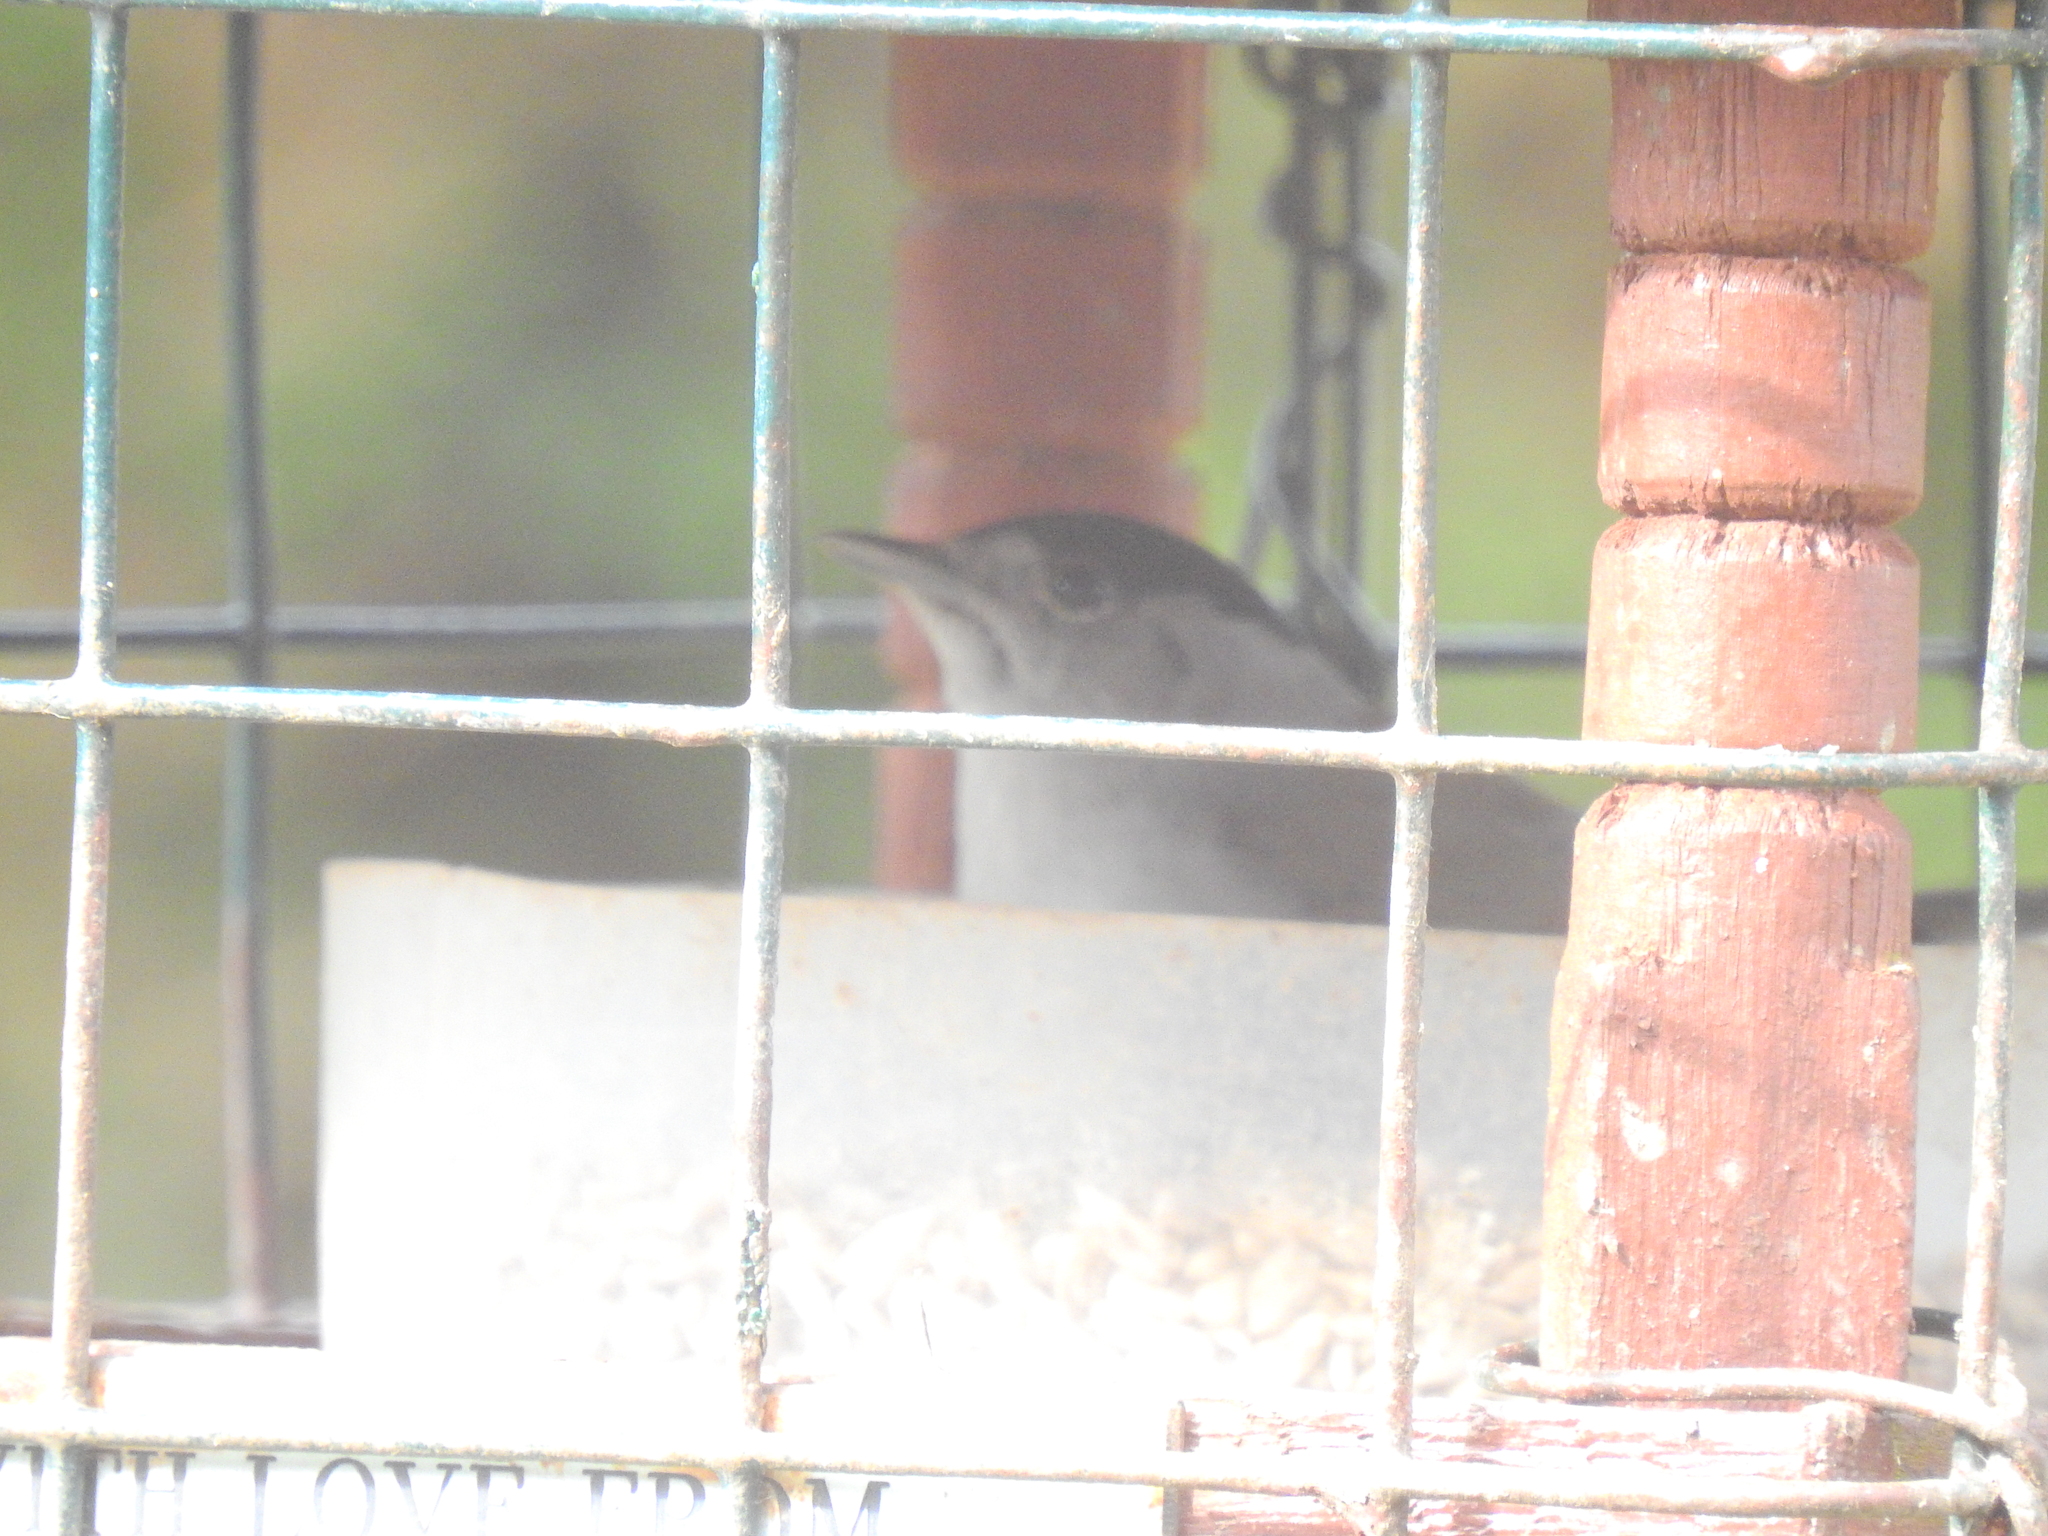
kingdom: Animalia
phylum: Chordata
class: Aves
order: Passeriformes
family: Sylviidae
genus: Sylvia
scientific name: Sylvia atricapilla
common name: Eurasian blackcap
